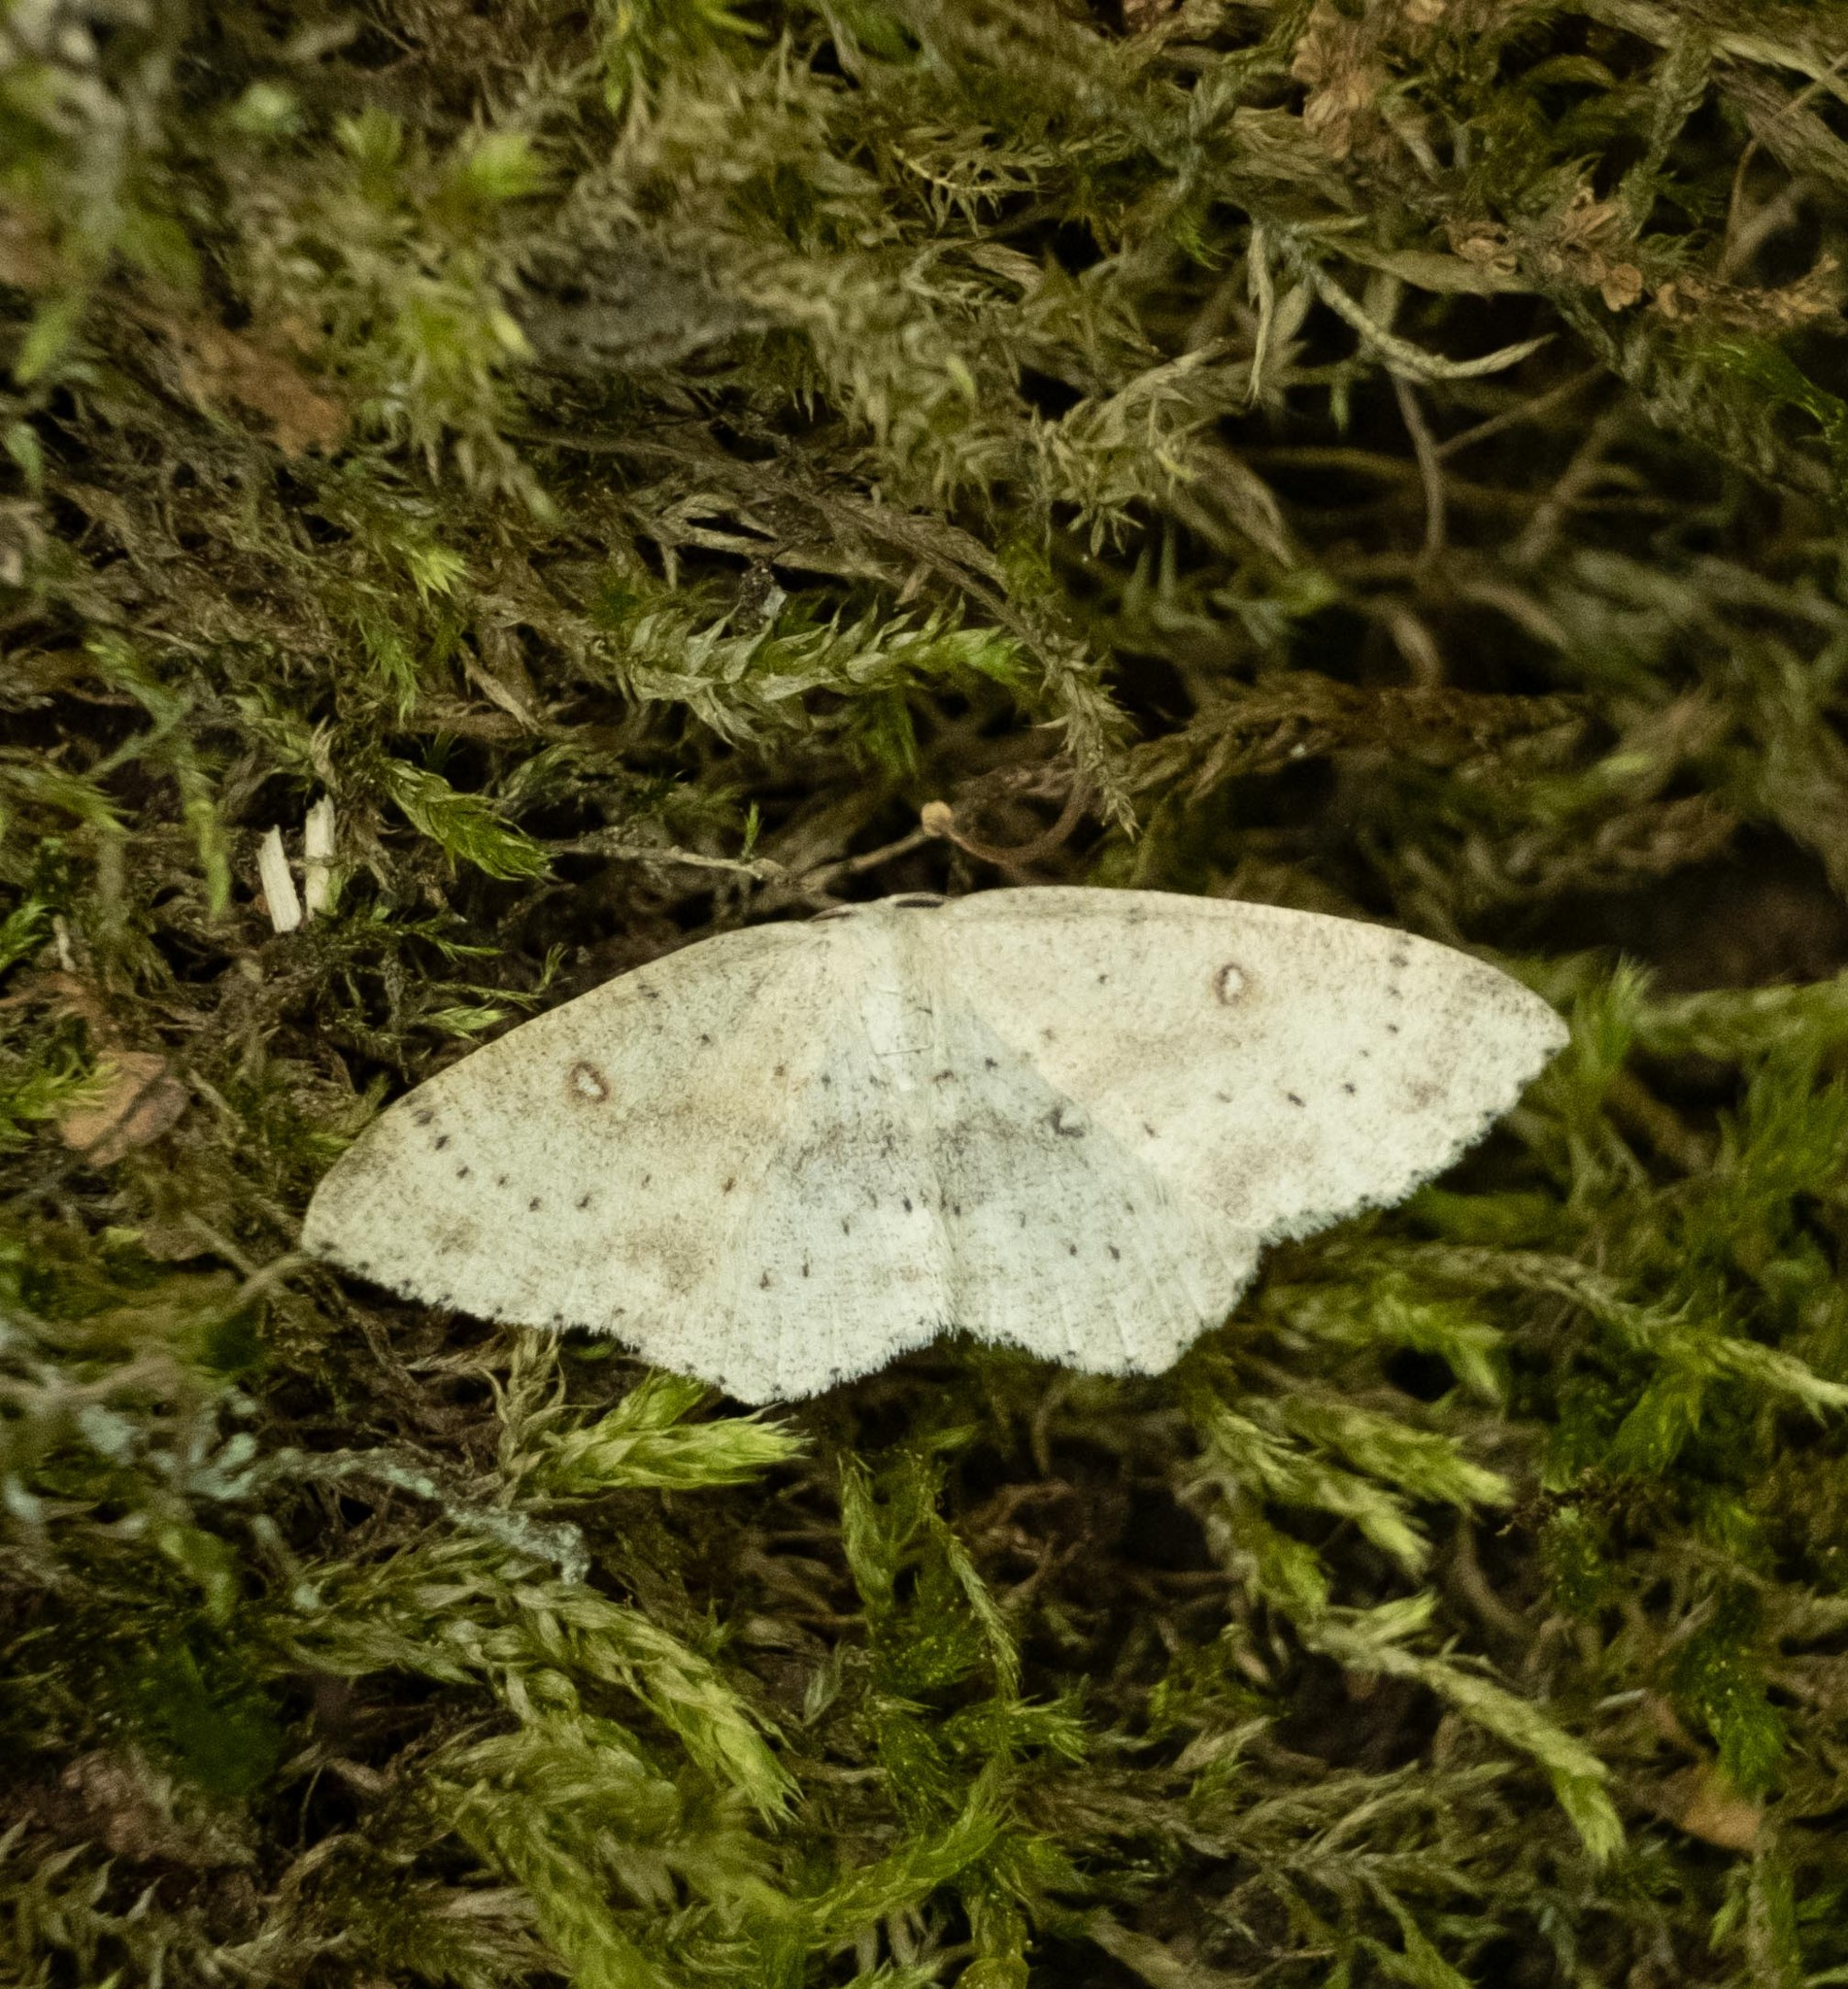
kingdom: Animalia
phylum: Arthropoda
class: Insecta
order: Lepidoptera
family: Geometridae
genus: Cyclophora
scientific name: Cyclophora albipunctata
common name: Birch mocha
